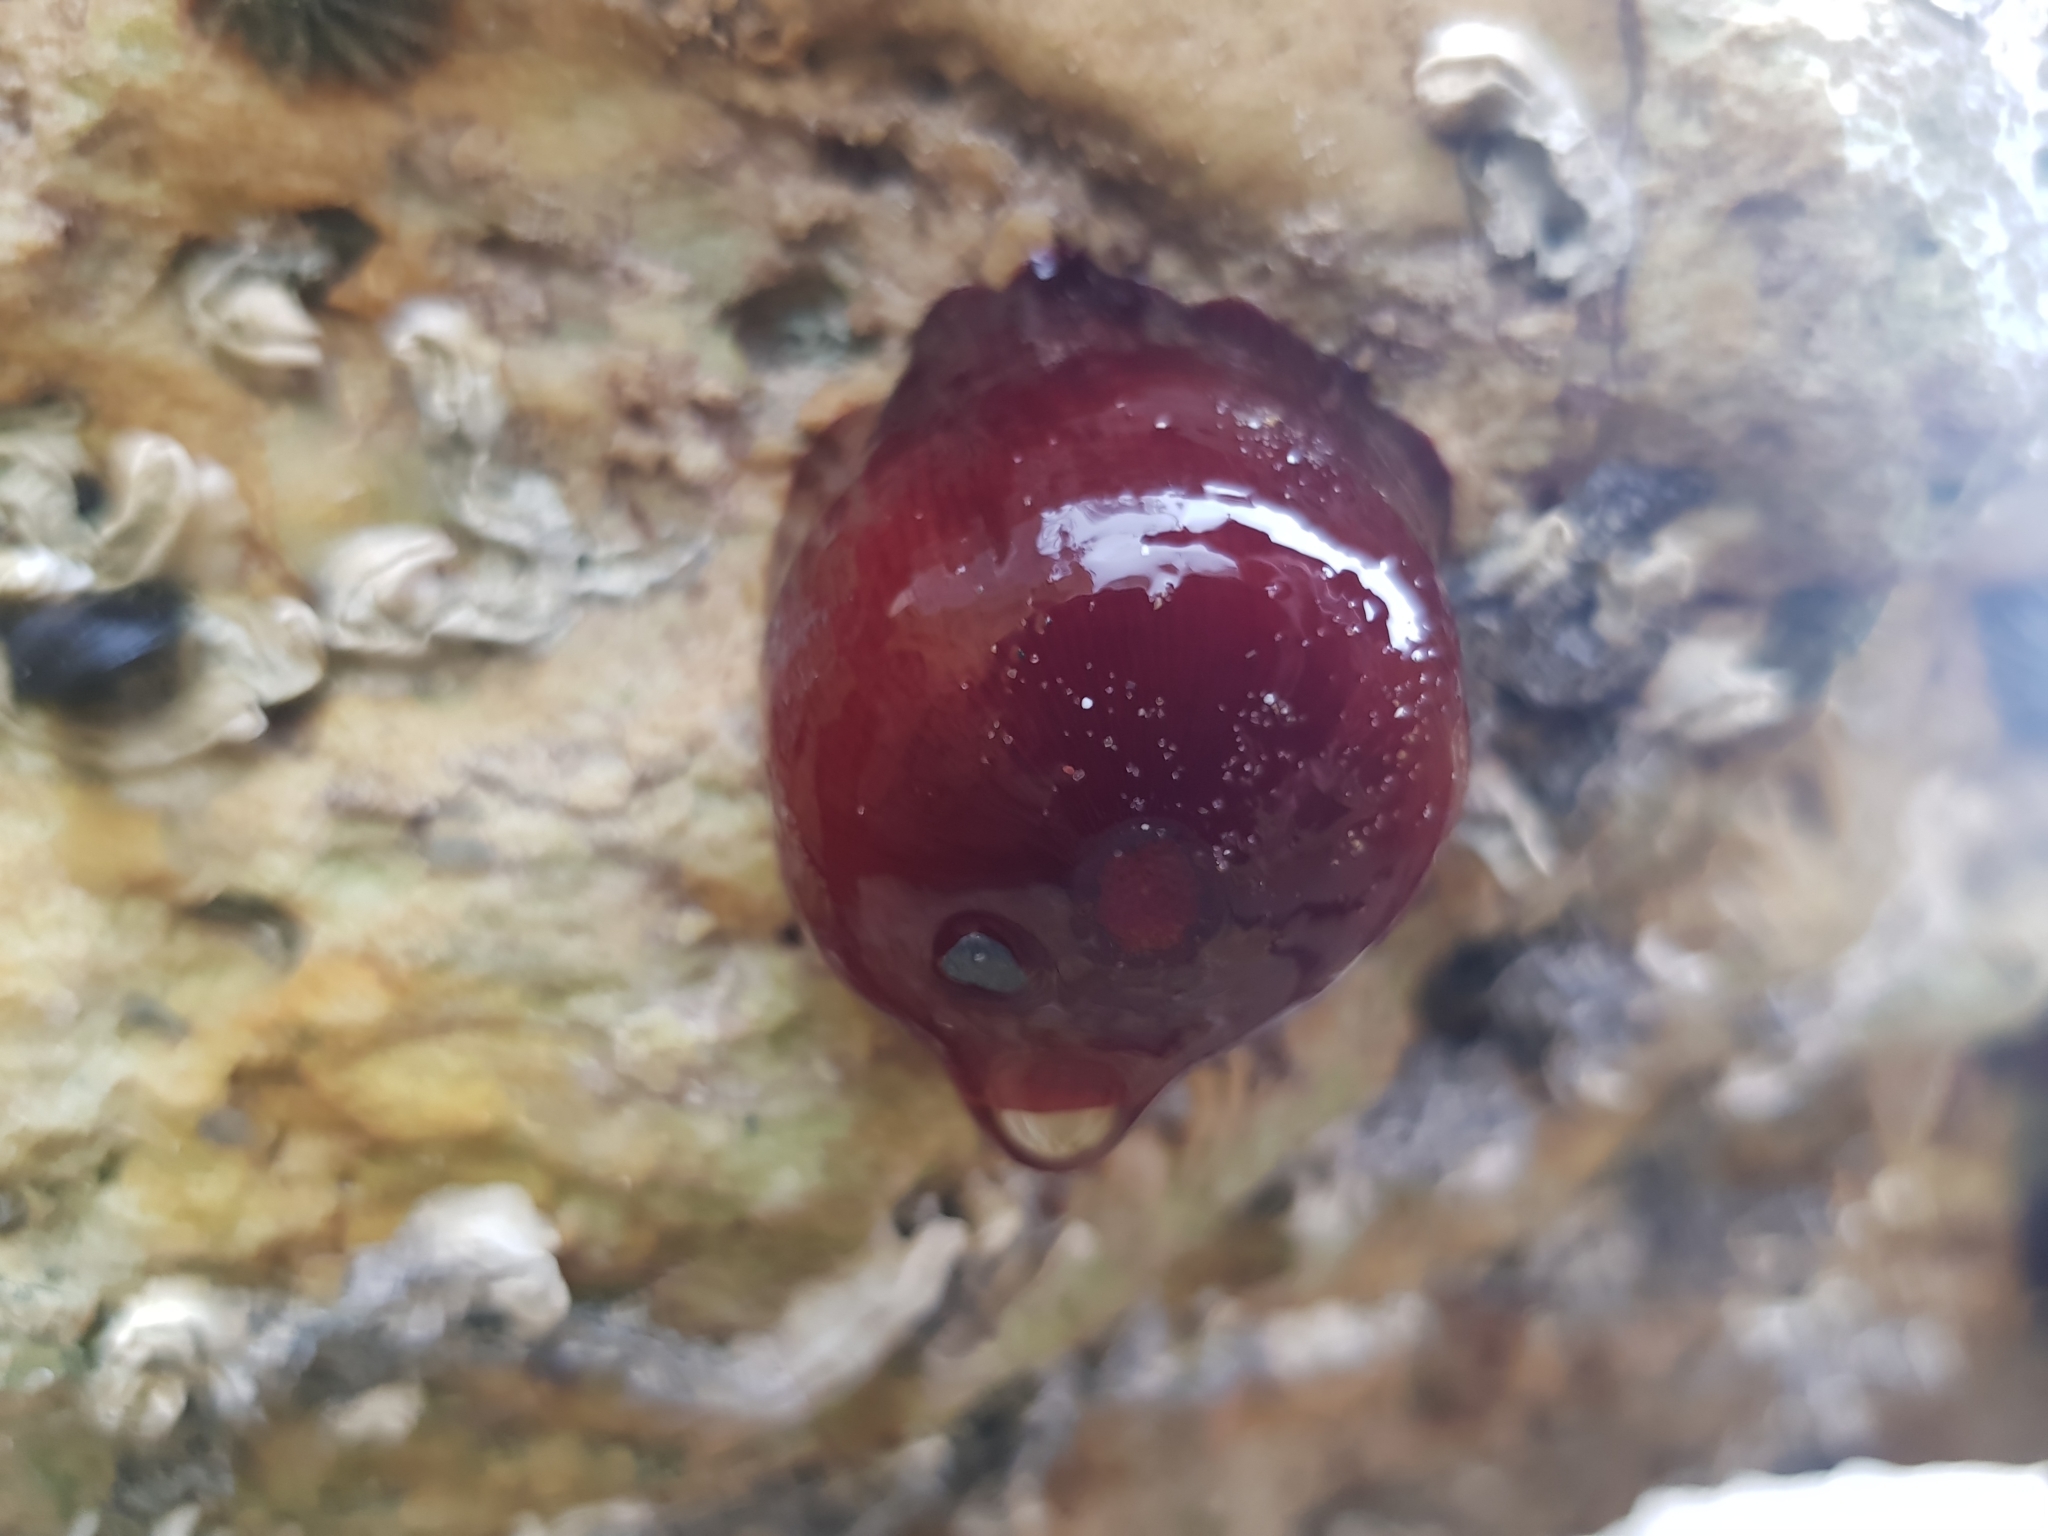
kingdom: Animalia
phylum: Cnidaria
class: Anthozoa
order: Actiniaria
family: Actiniidae
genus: Actinia
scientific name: Actinia tenebrosa
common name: Waratah anemone
